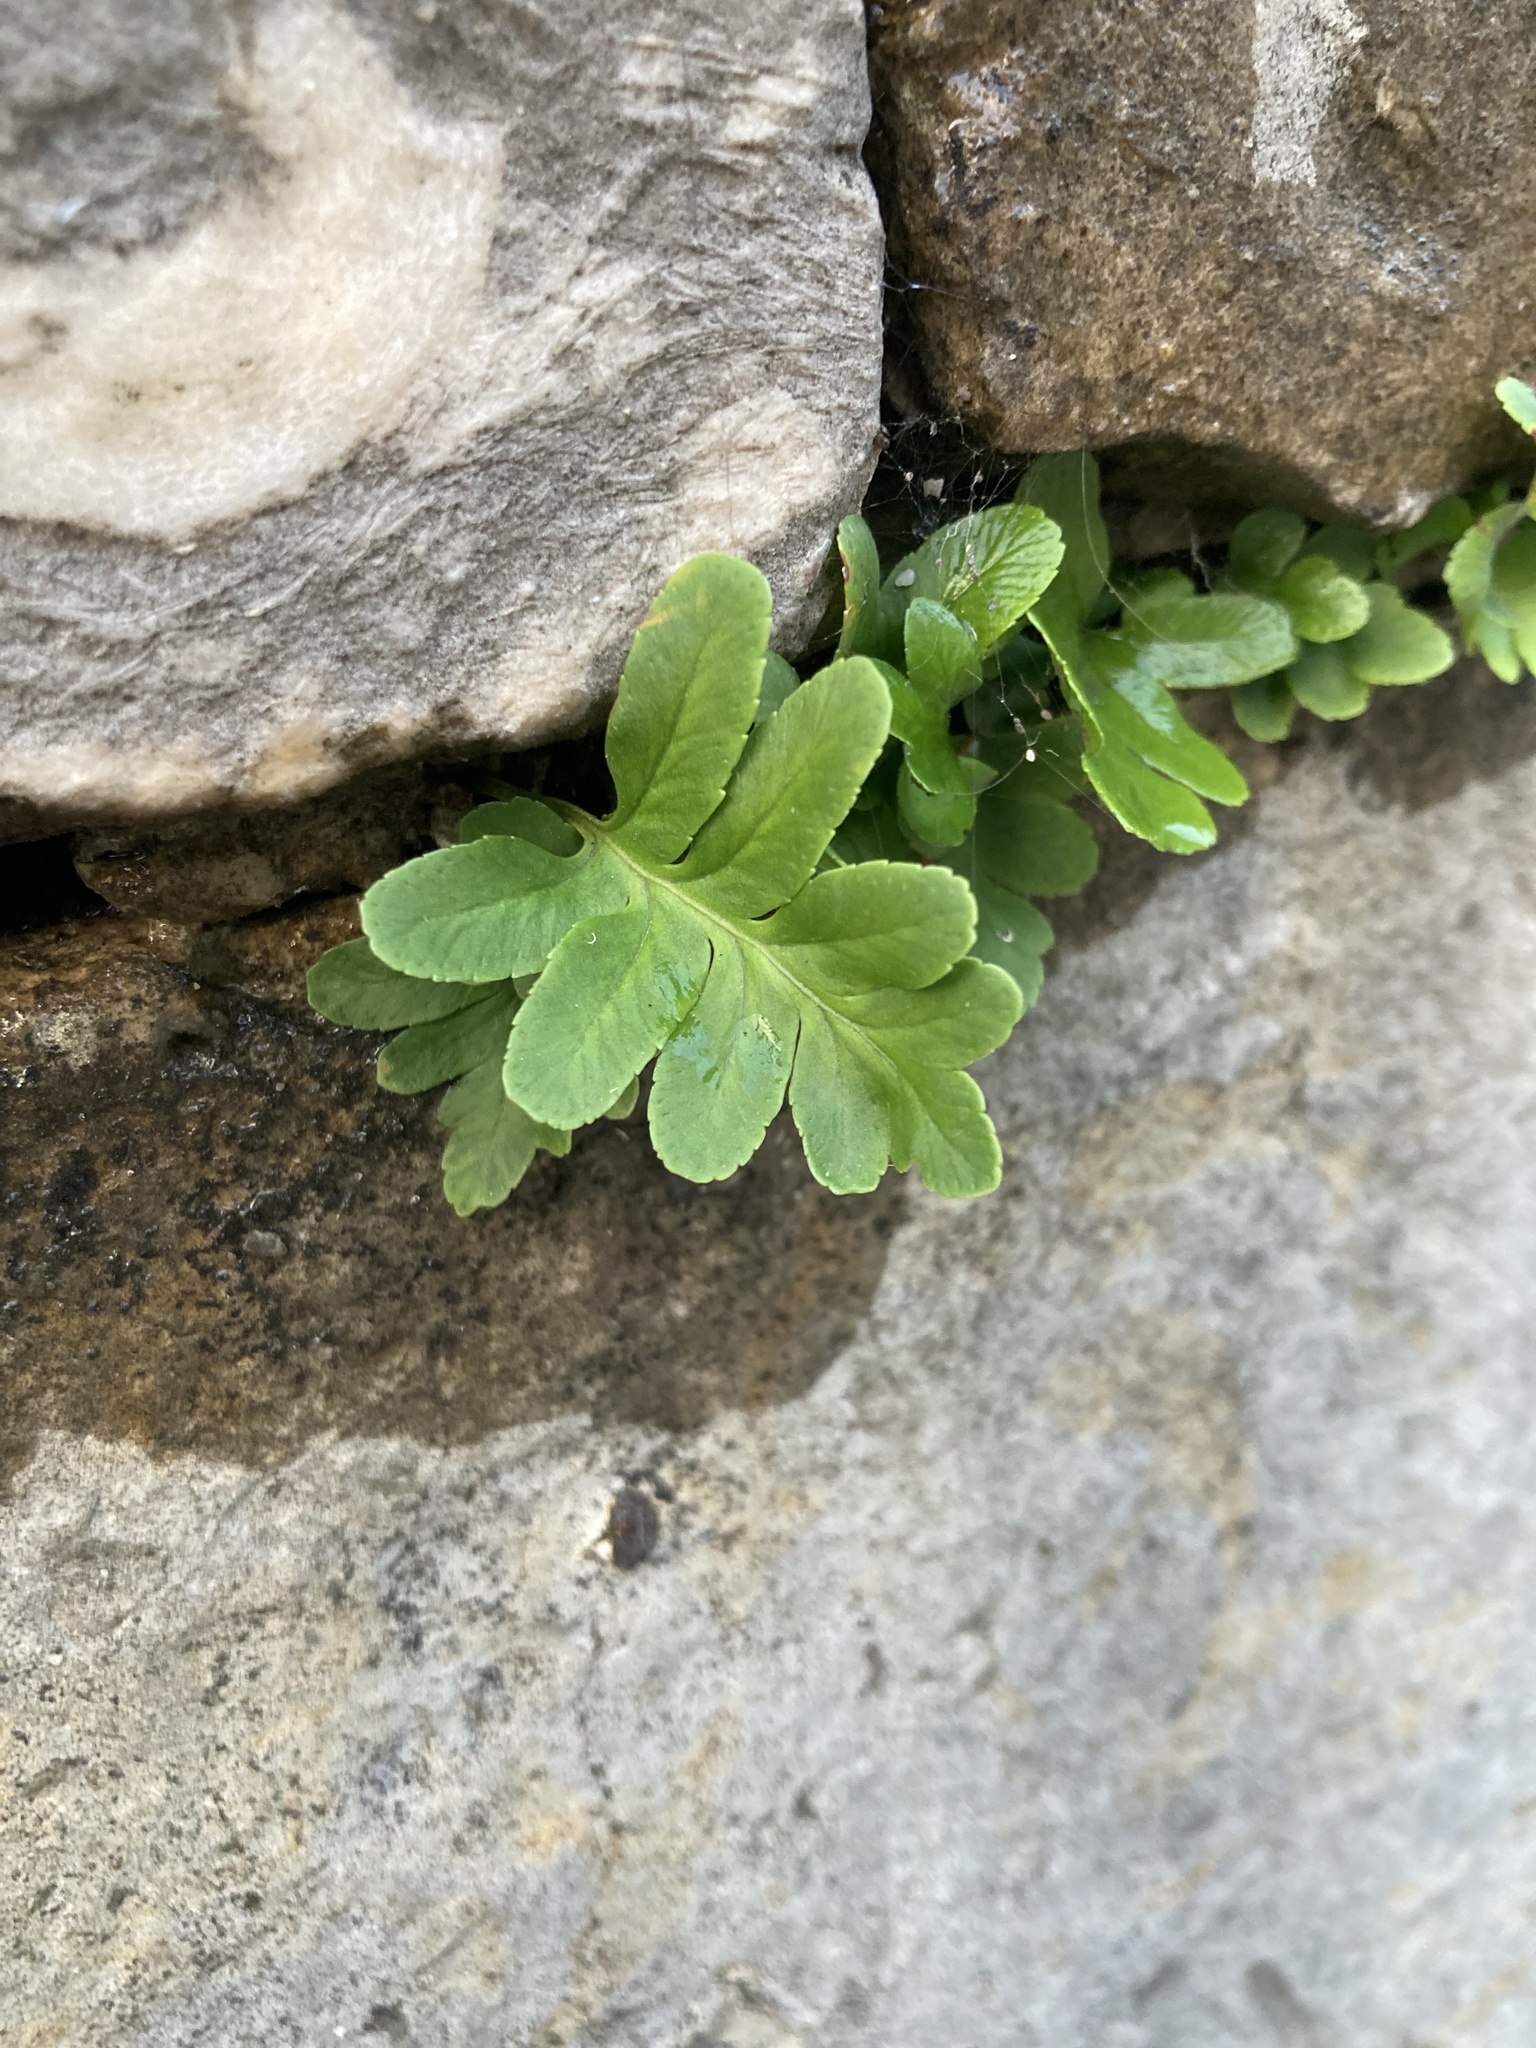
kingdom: Plantae
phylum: Tracheophyta
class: Polypodiopsida
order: Polypodiales
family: Polypodiaceae
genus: Polypodium
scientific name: Polypodium cambricum
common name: Southern polypody
